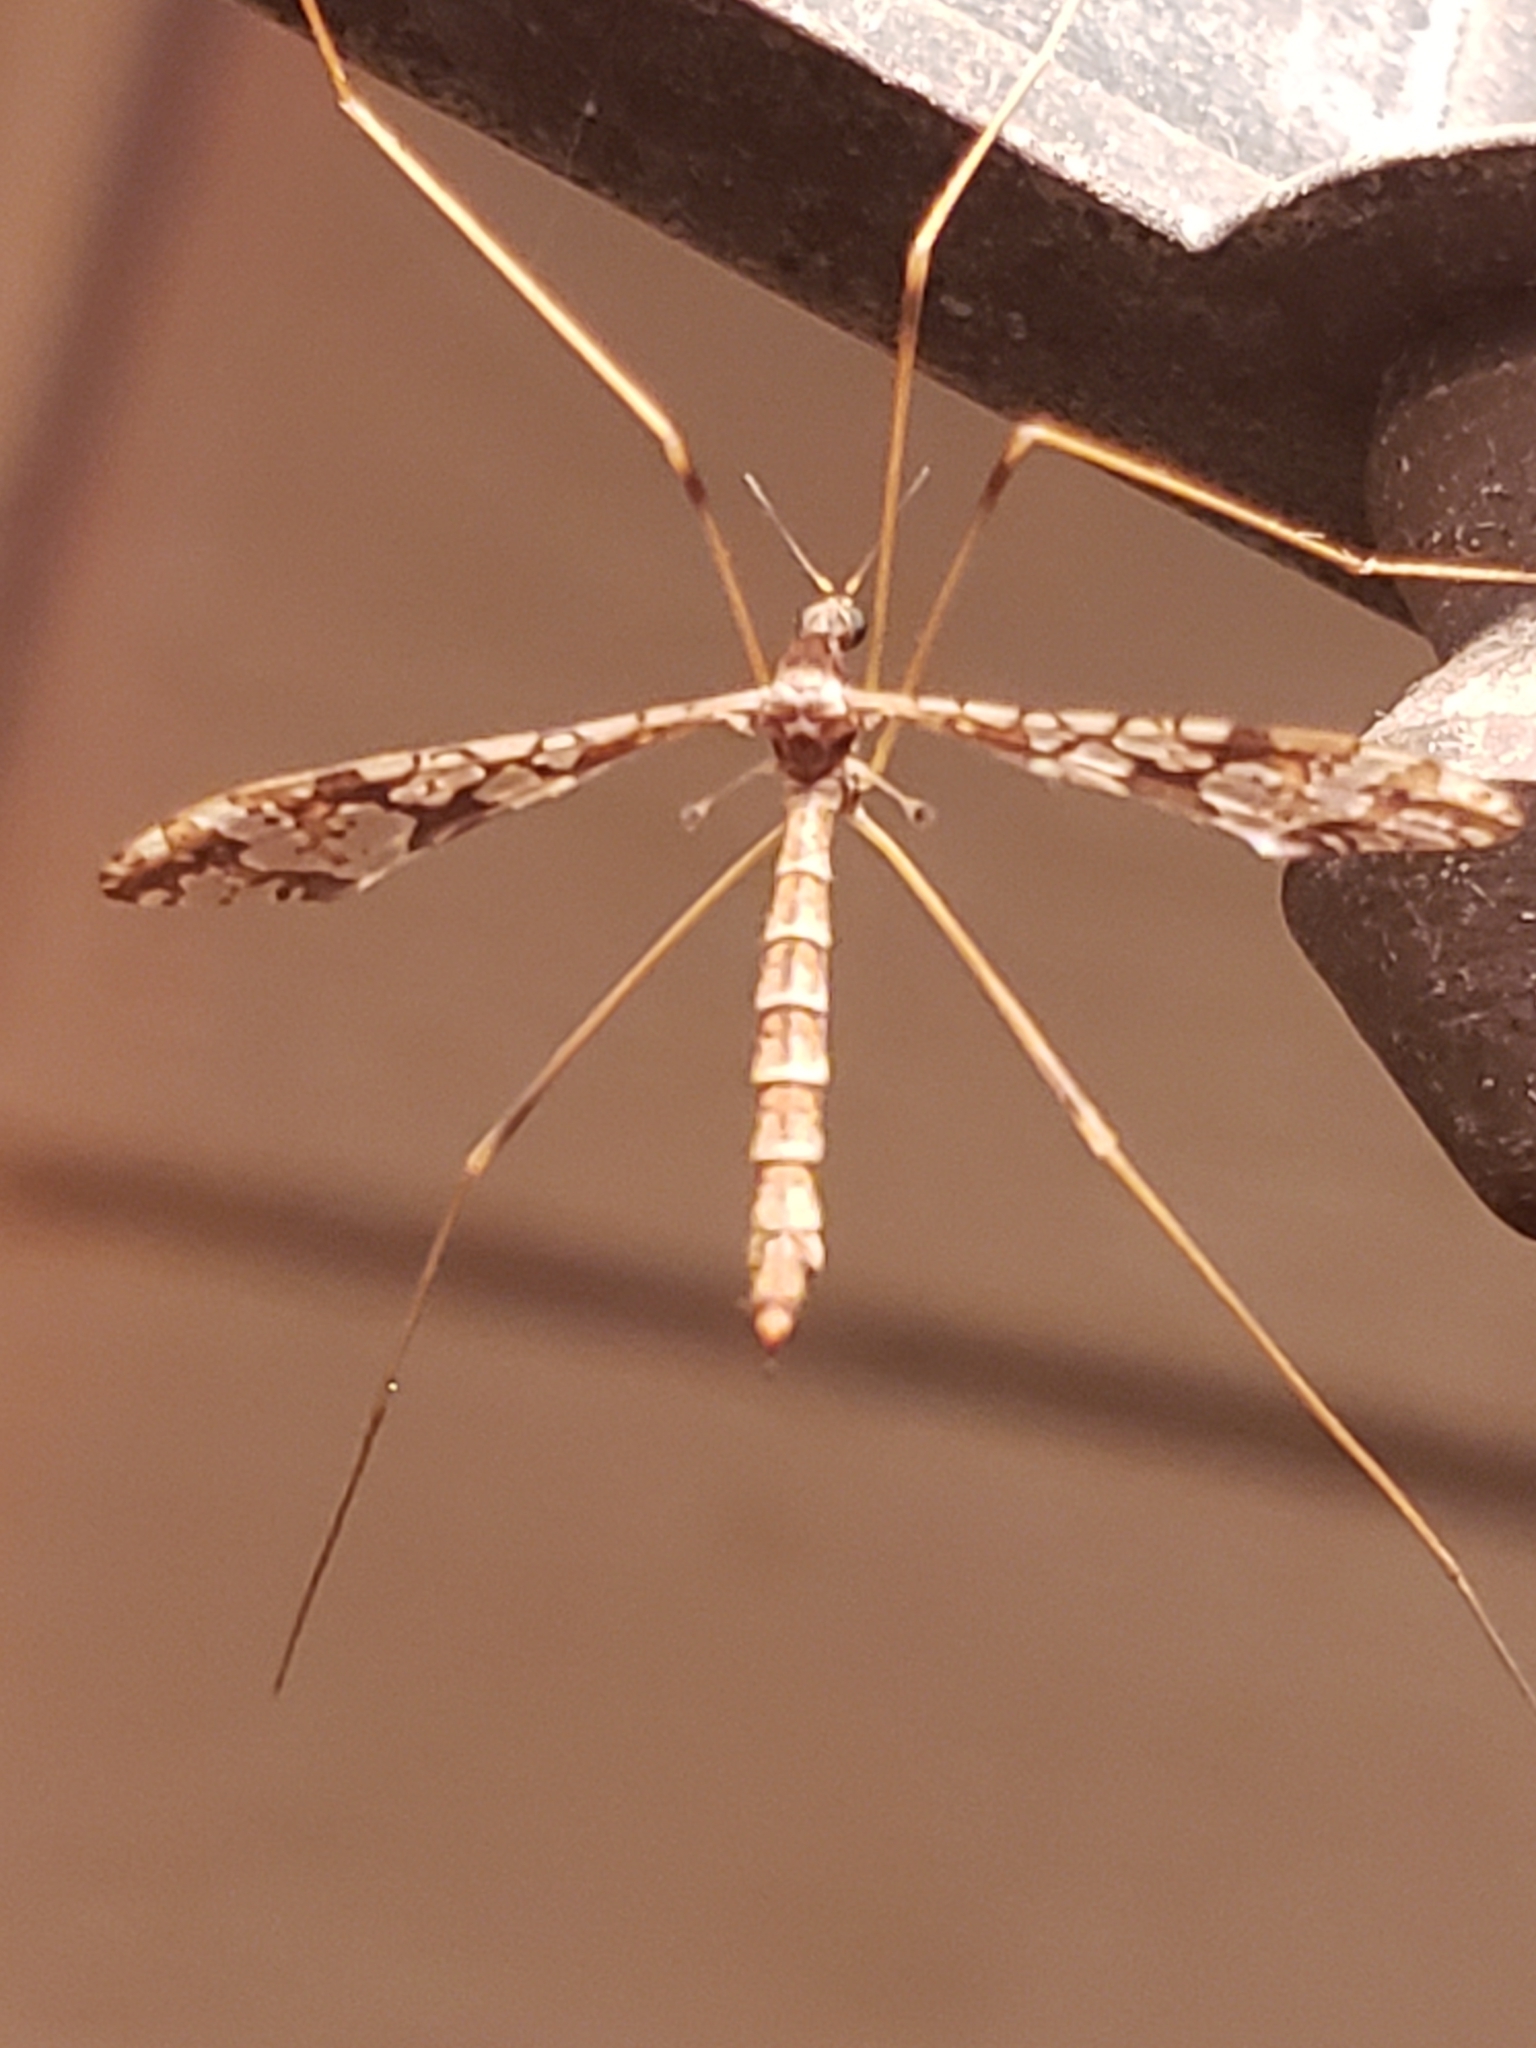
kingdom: Animalia
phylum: Arthropoda
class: Insecta
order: Diptera
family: Limoniidae
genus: Epiphragma
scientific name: Epiphragma solatrix
